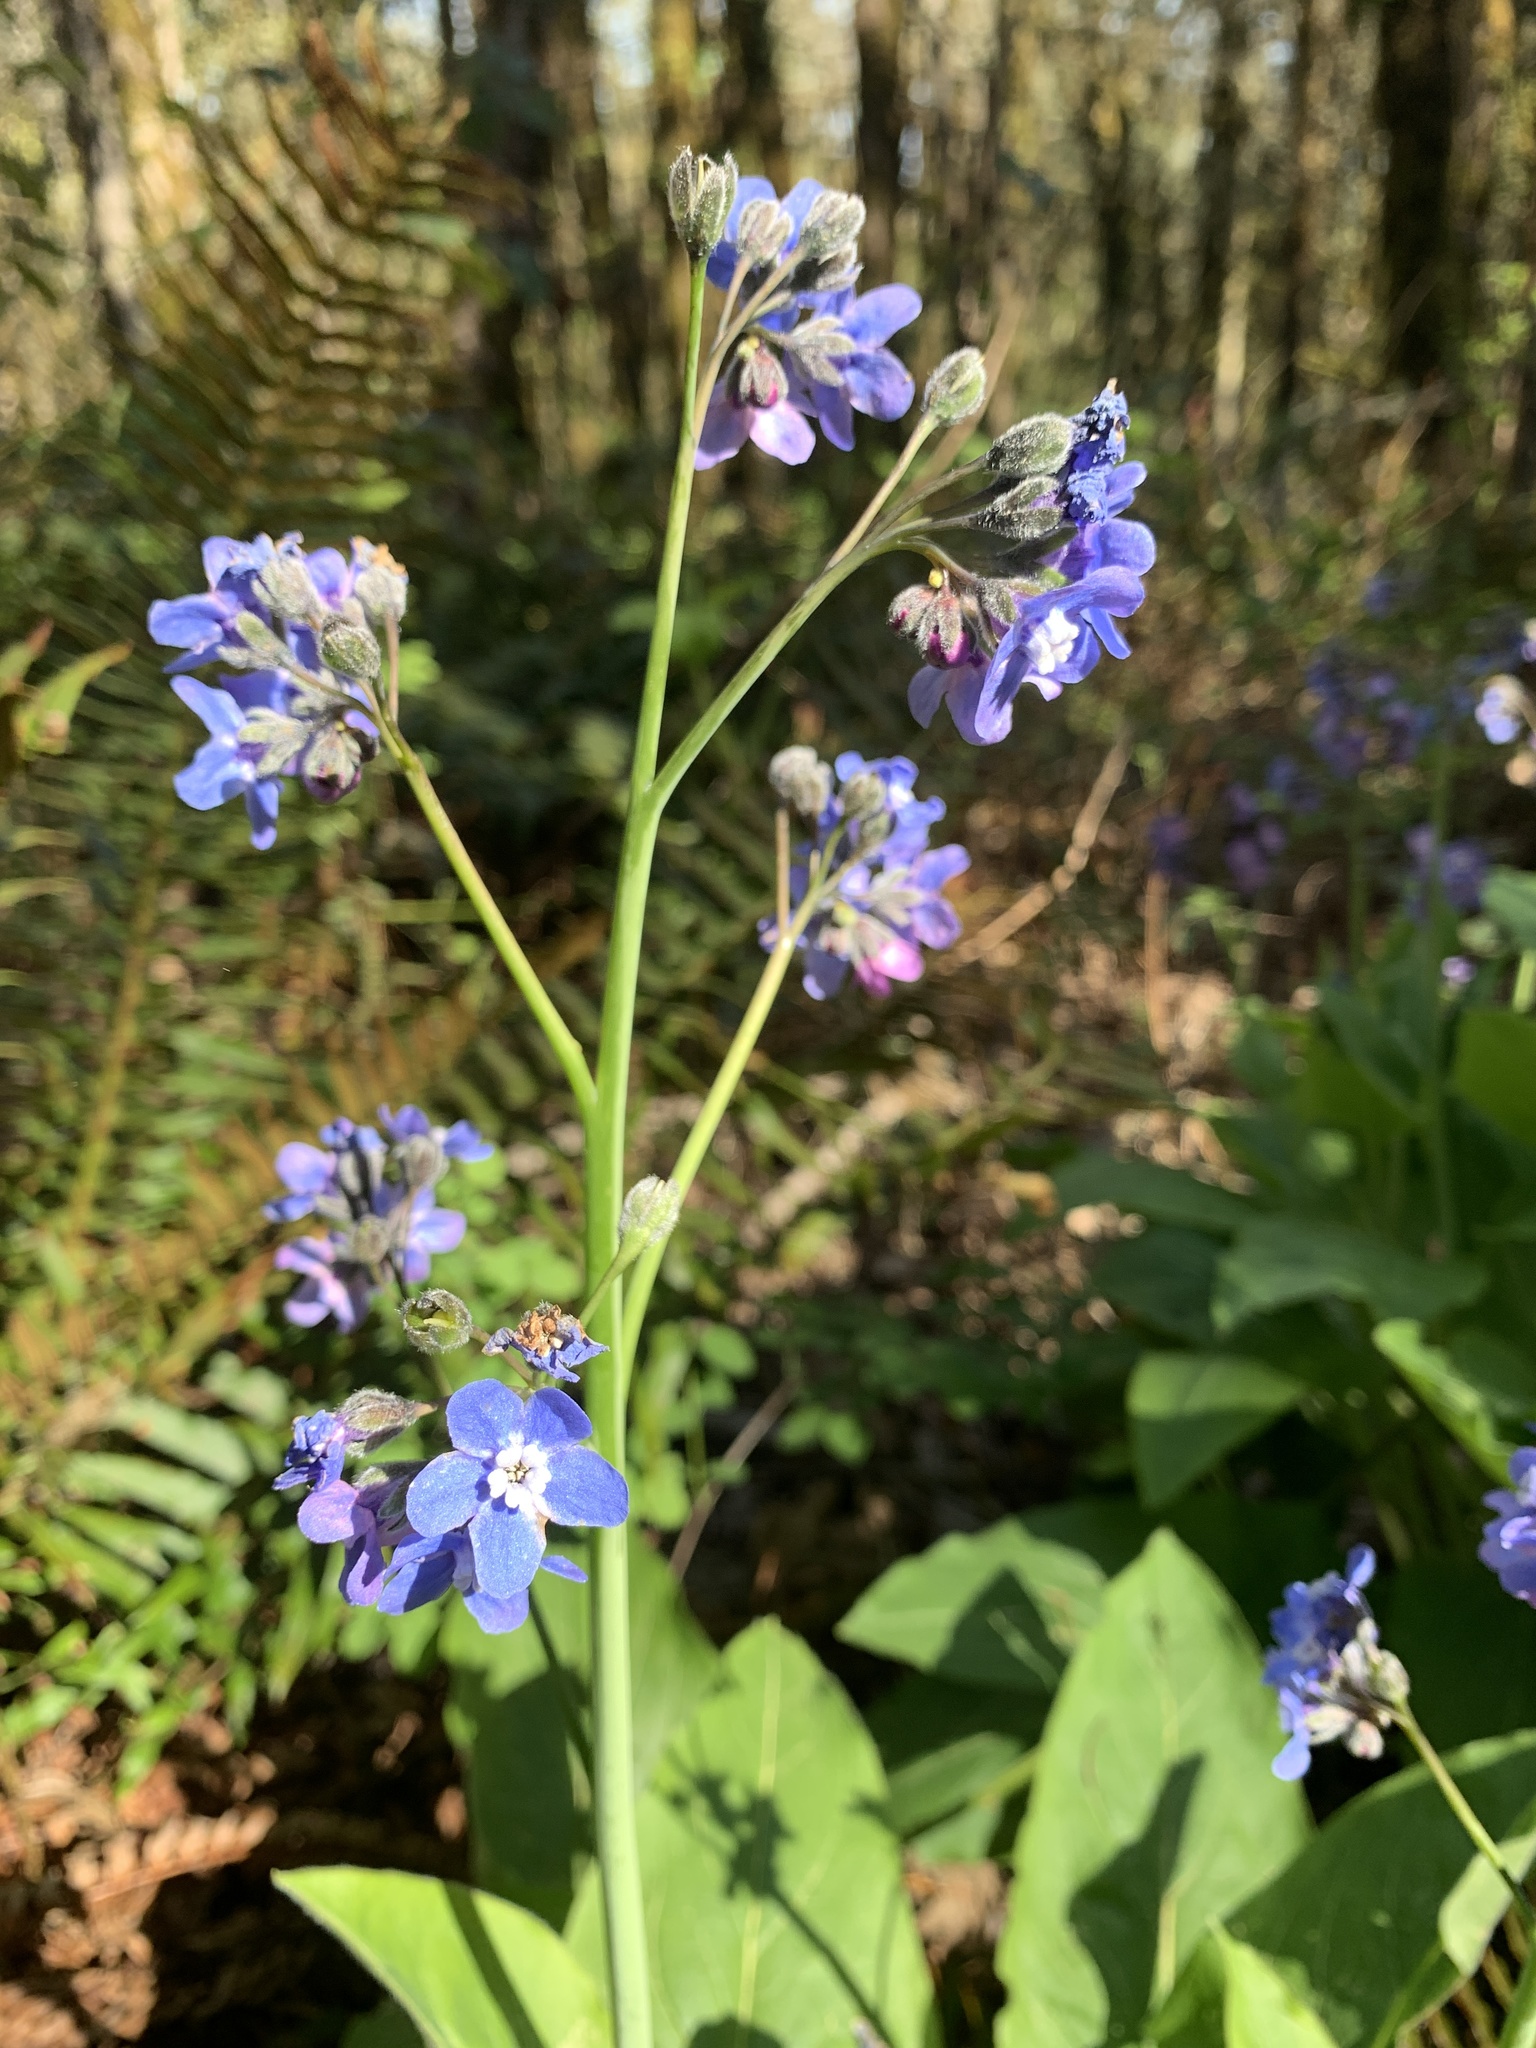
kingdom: Plantae
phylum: Tracheophyta
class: Magnoliopsida
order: Boraginales
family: Boraginaceae
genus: Adelinia
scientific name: Adelinia grande
